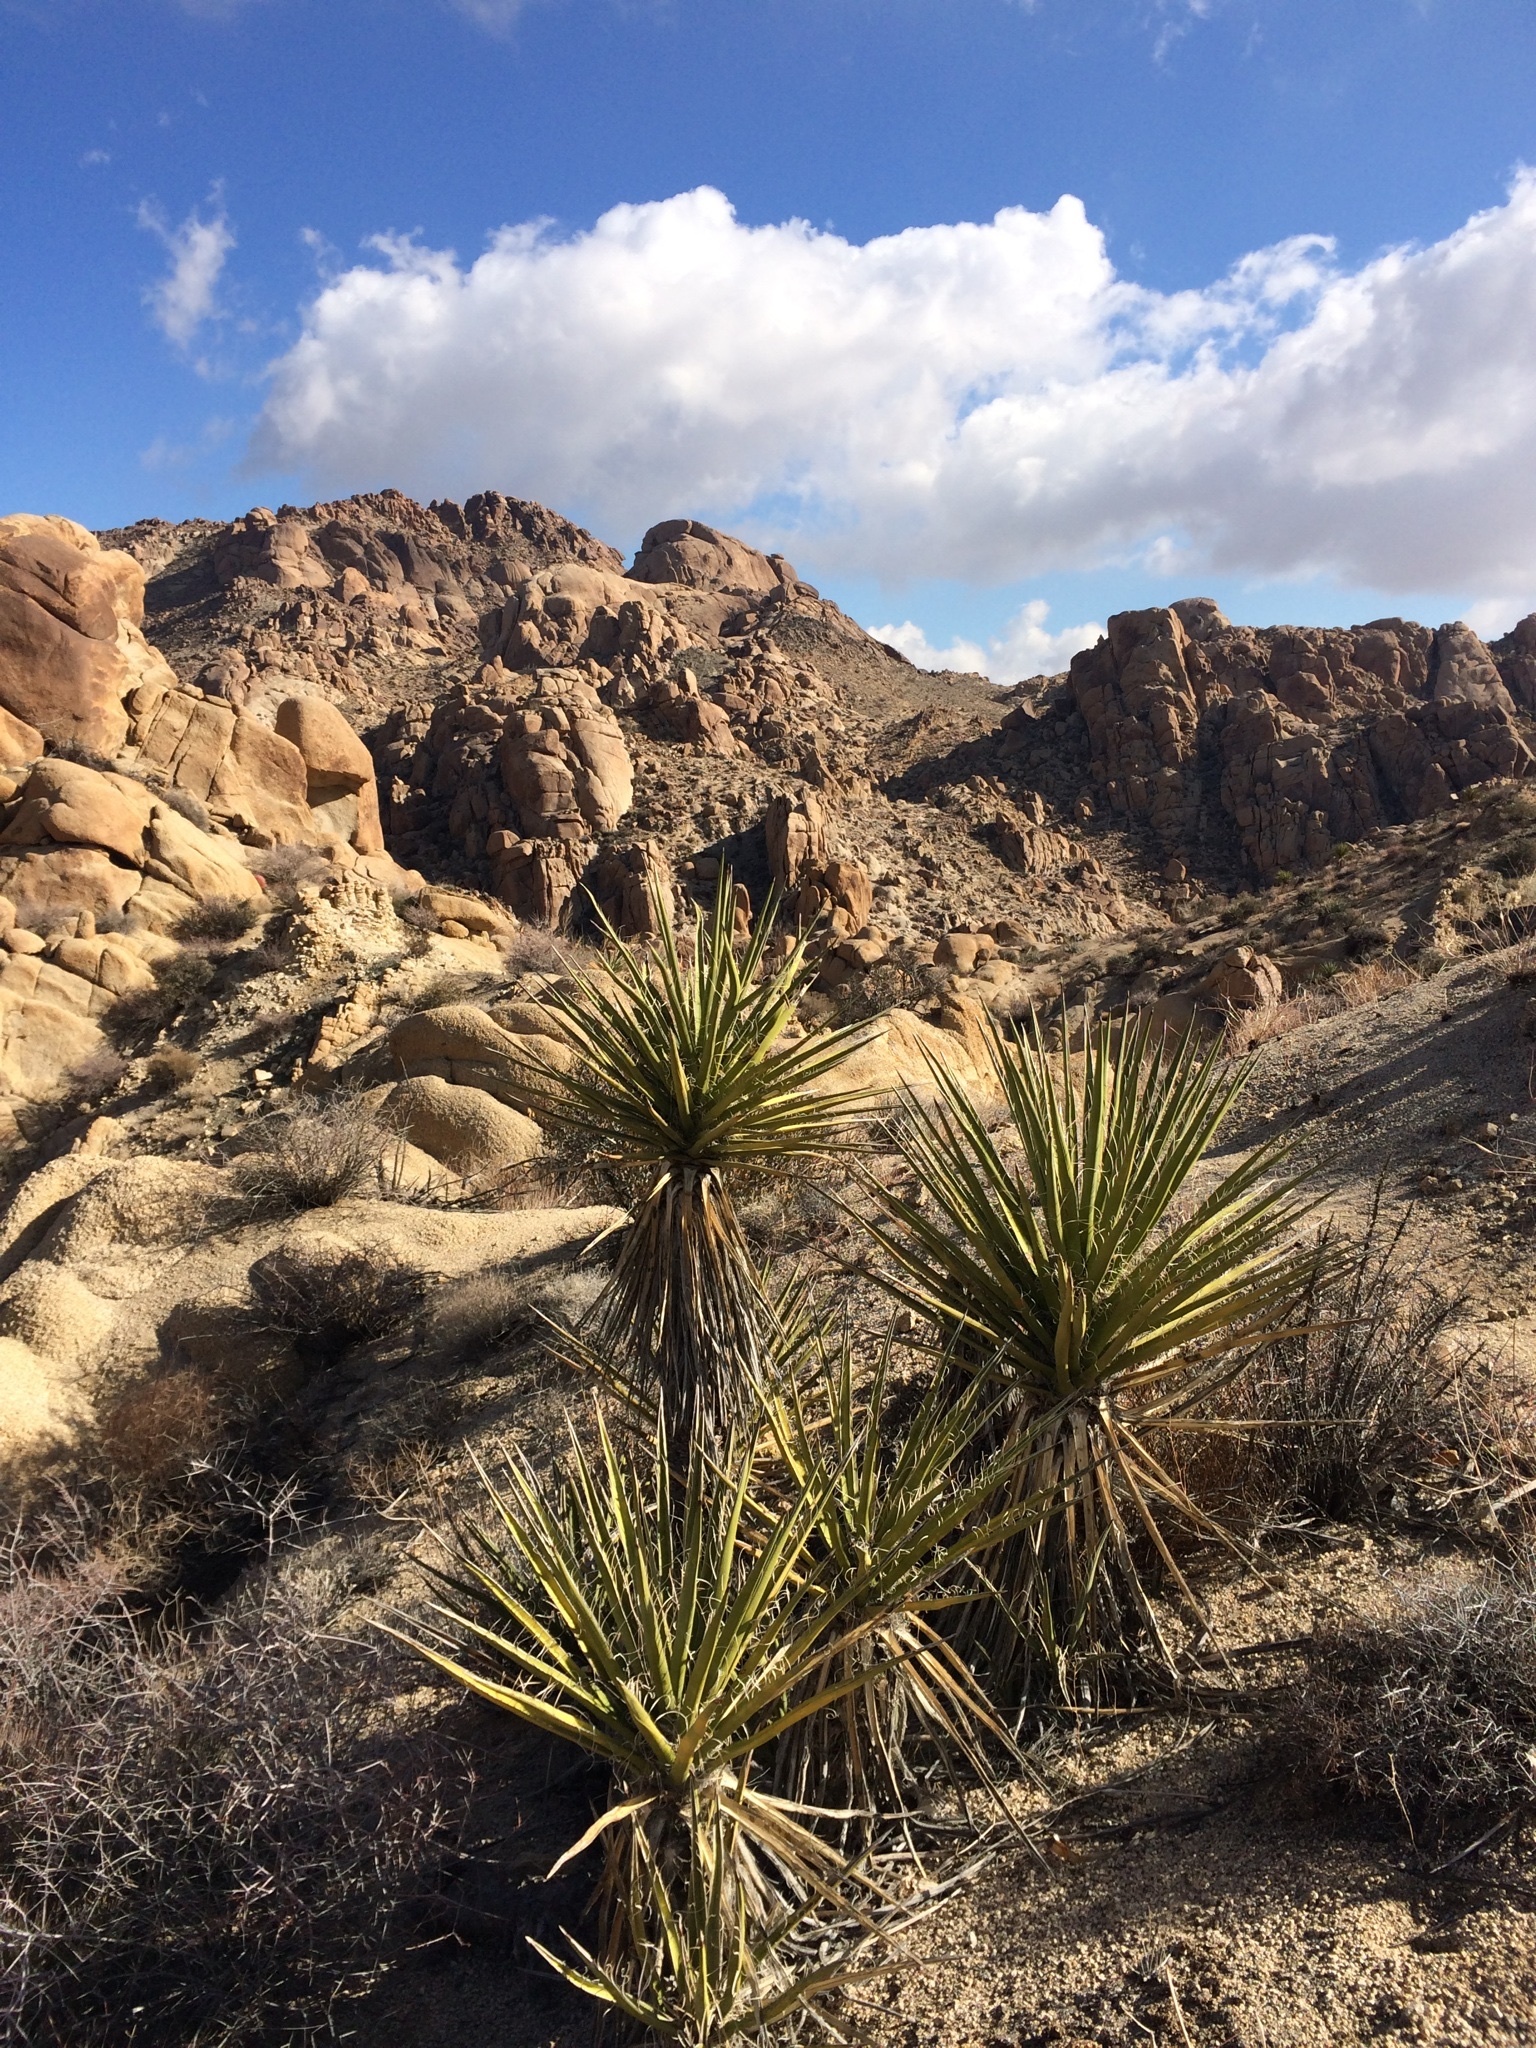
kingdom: Plantae
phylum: Tracheophyta
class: Liliopsida
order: Asparagales
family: Asparagaceae
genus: Yucca
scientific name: Yucca schidigera
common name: Mojave yucca
